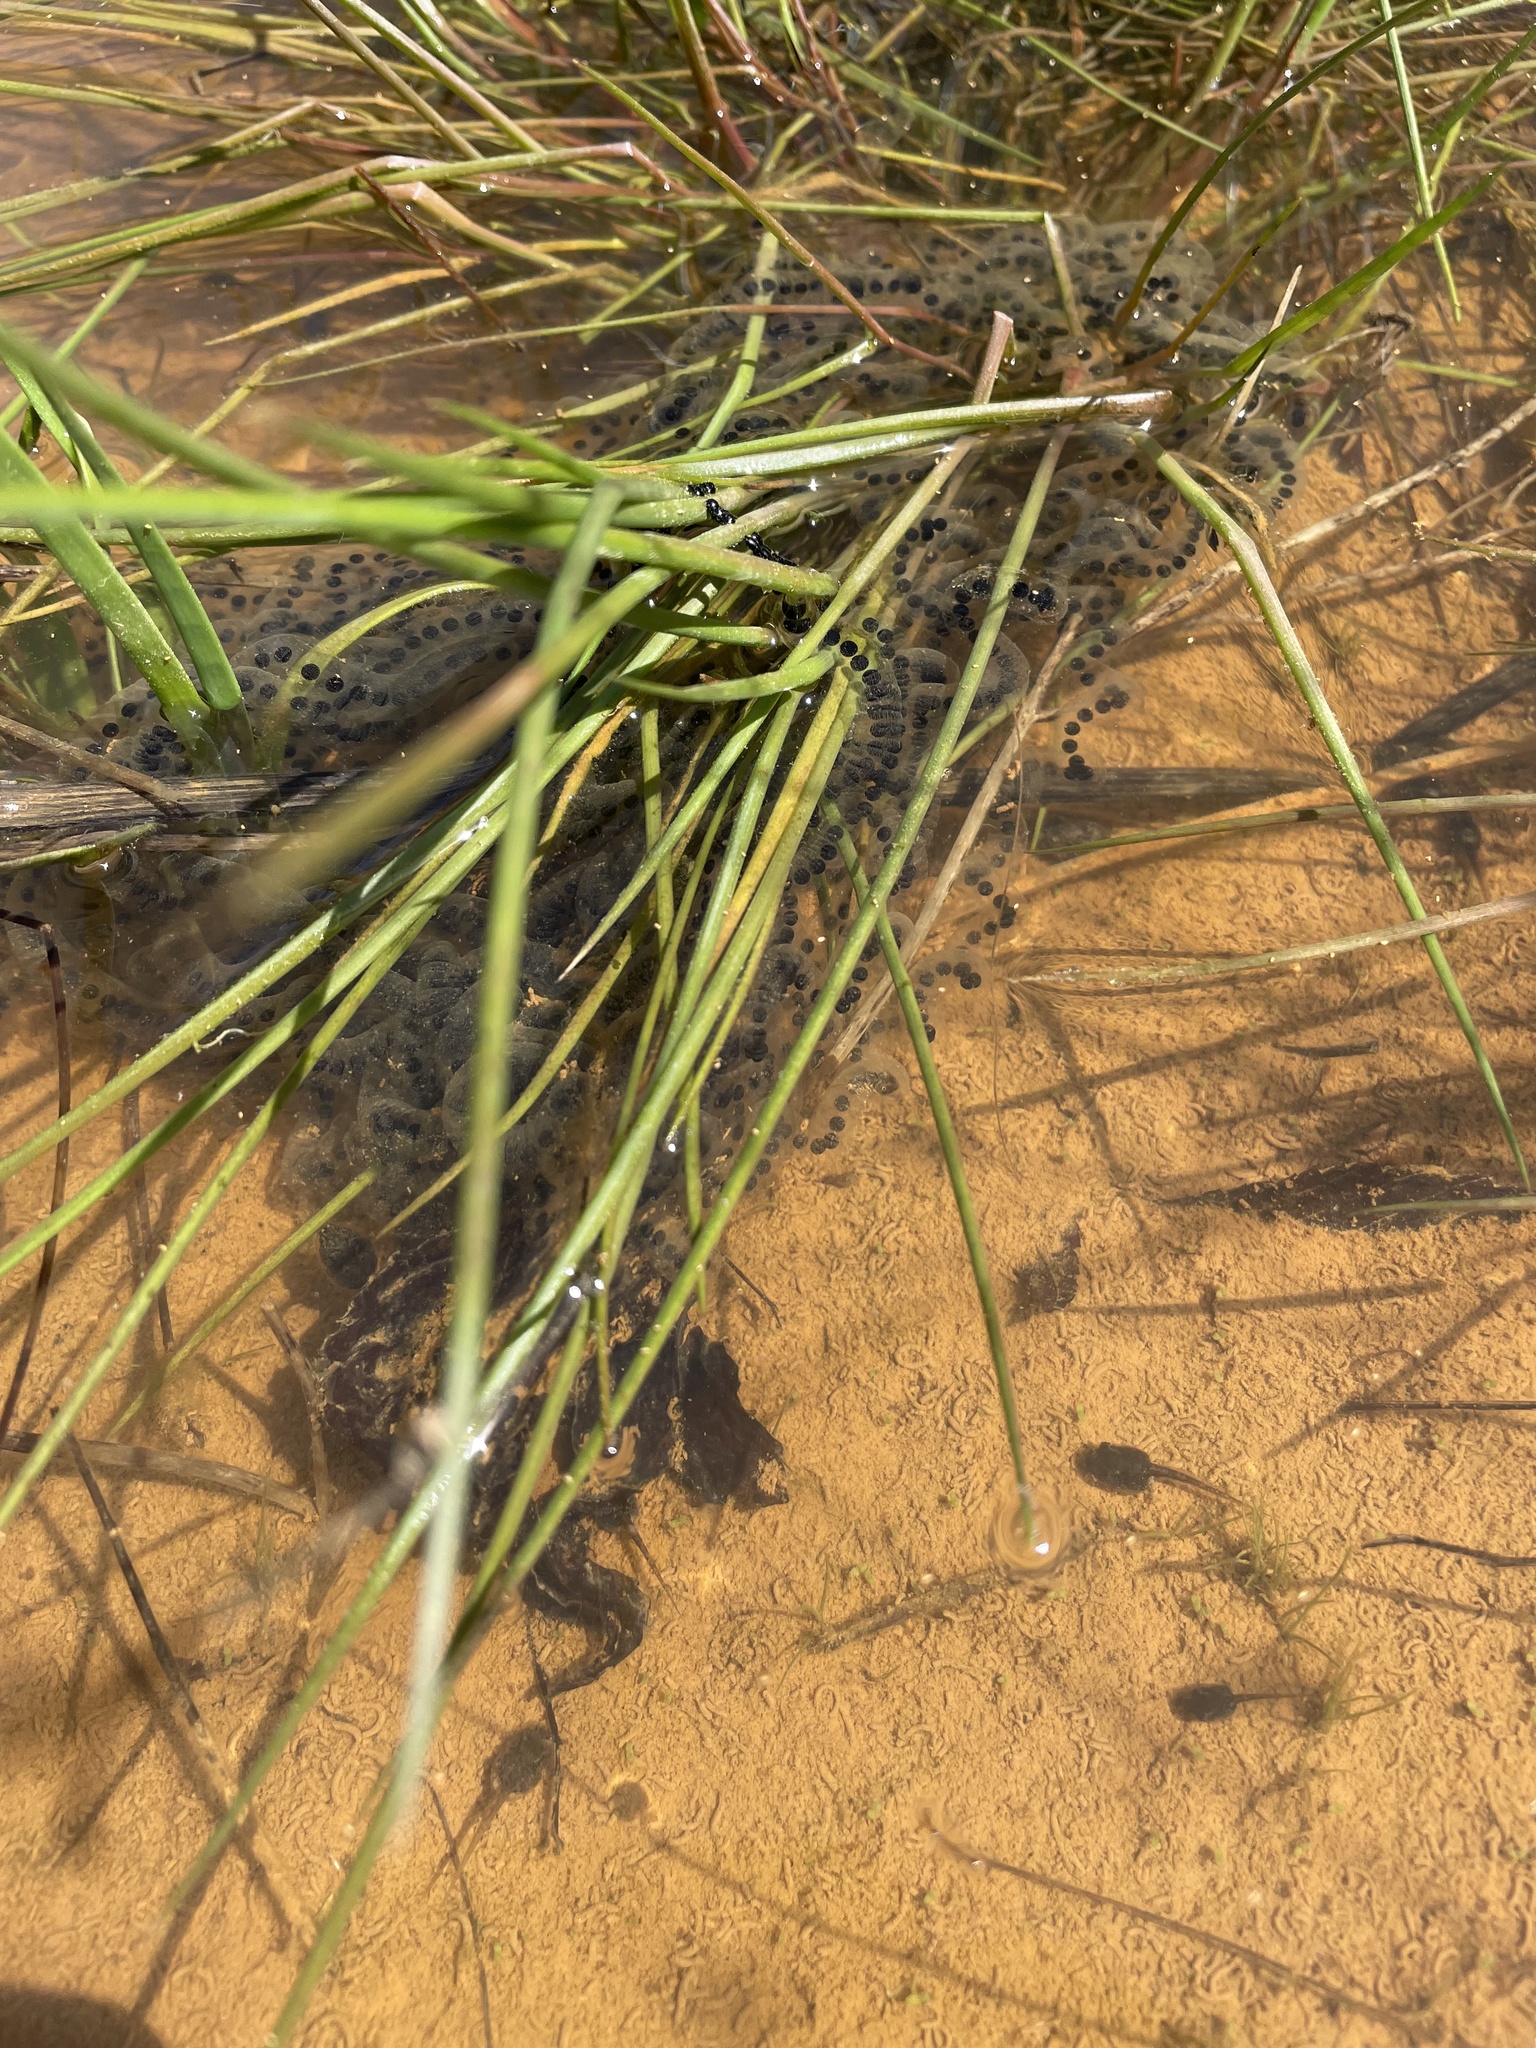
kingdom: Animalia
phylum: Chordata
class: Amphibia
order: Anura
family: Bufonidae
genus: Anaxyrus
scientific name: Anaxyrus americanus
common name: American toad
